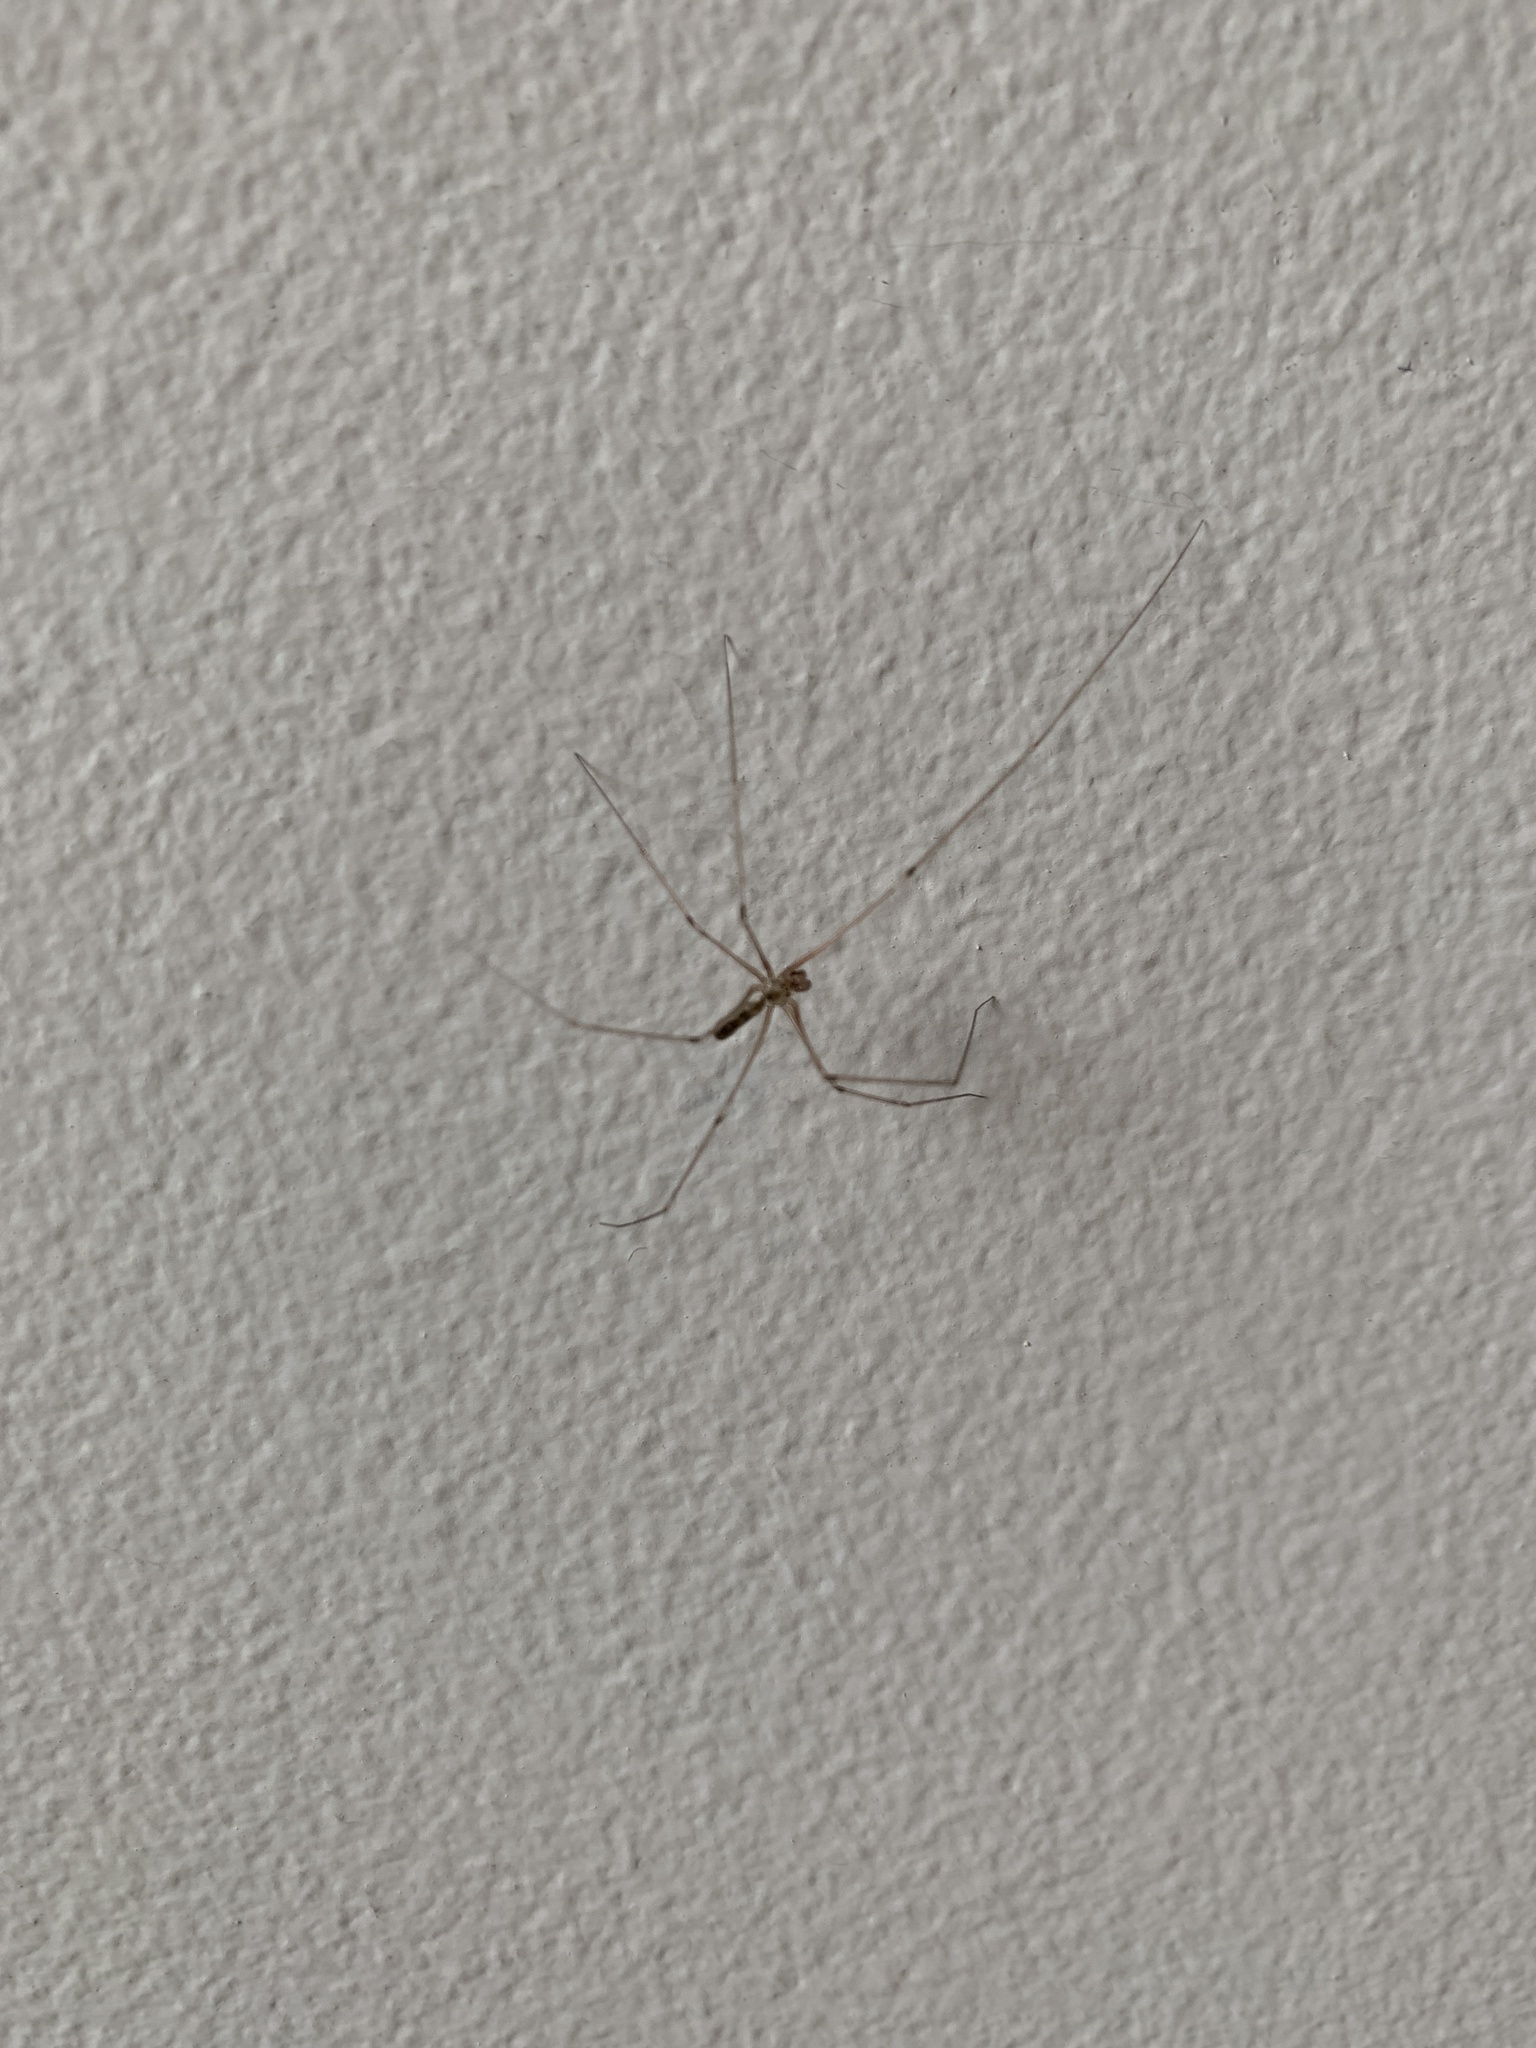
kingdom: Animalia
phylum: Arthropoda
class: Arachnida
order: Araneae
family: Pholcidae
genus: Pholcus
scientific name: Pholcus phalangioides
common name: Longbodied cellar spider
